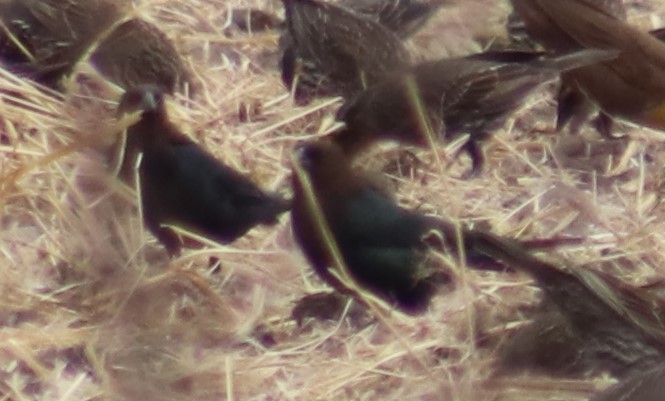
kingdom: Animalia
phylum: Chordata
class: Aves
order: Passeriformes
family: Icteridae
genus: Molothrus
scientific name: Molothrus ater
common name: Brown-headed cowbird
